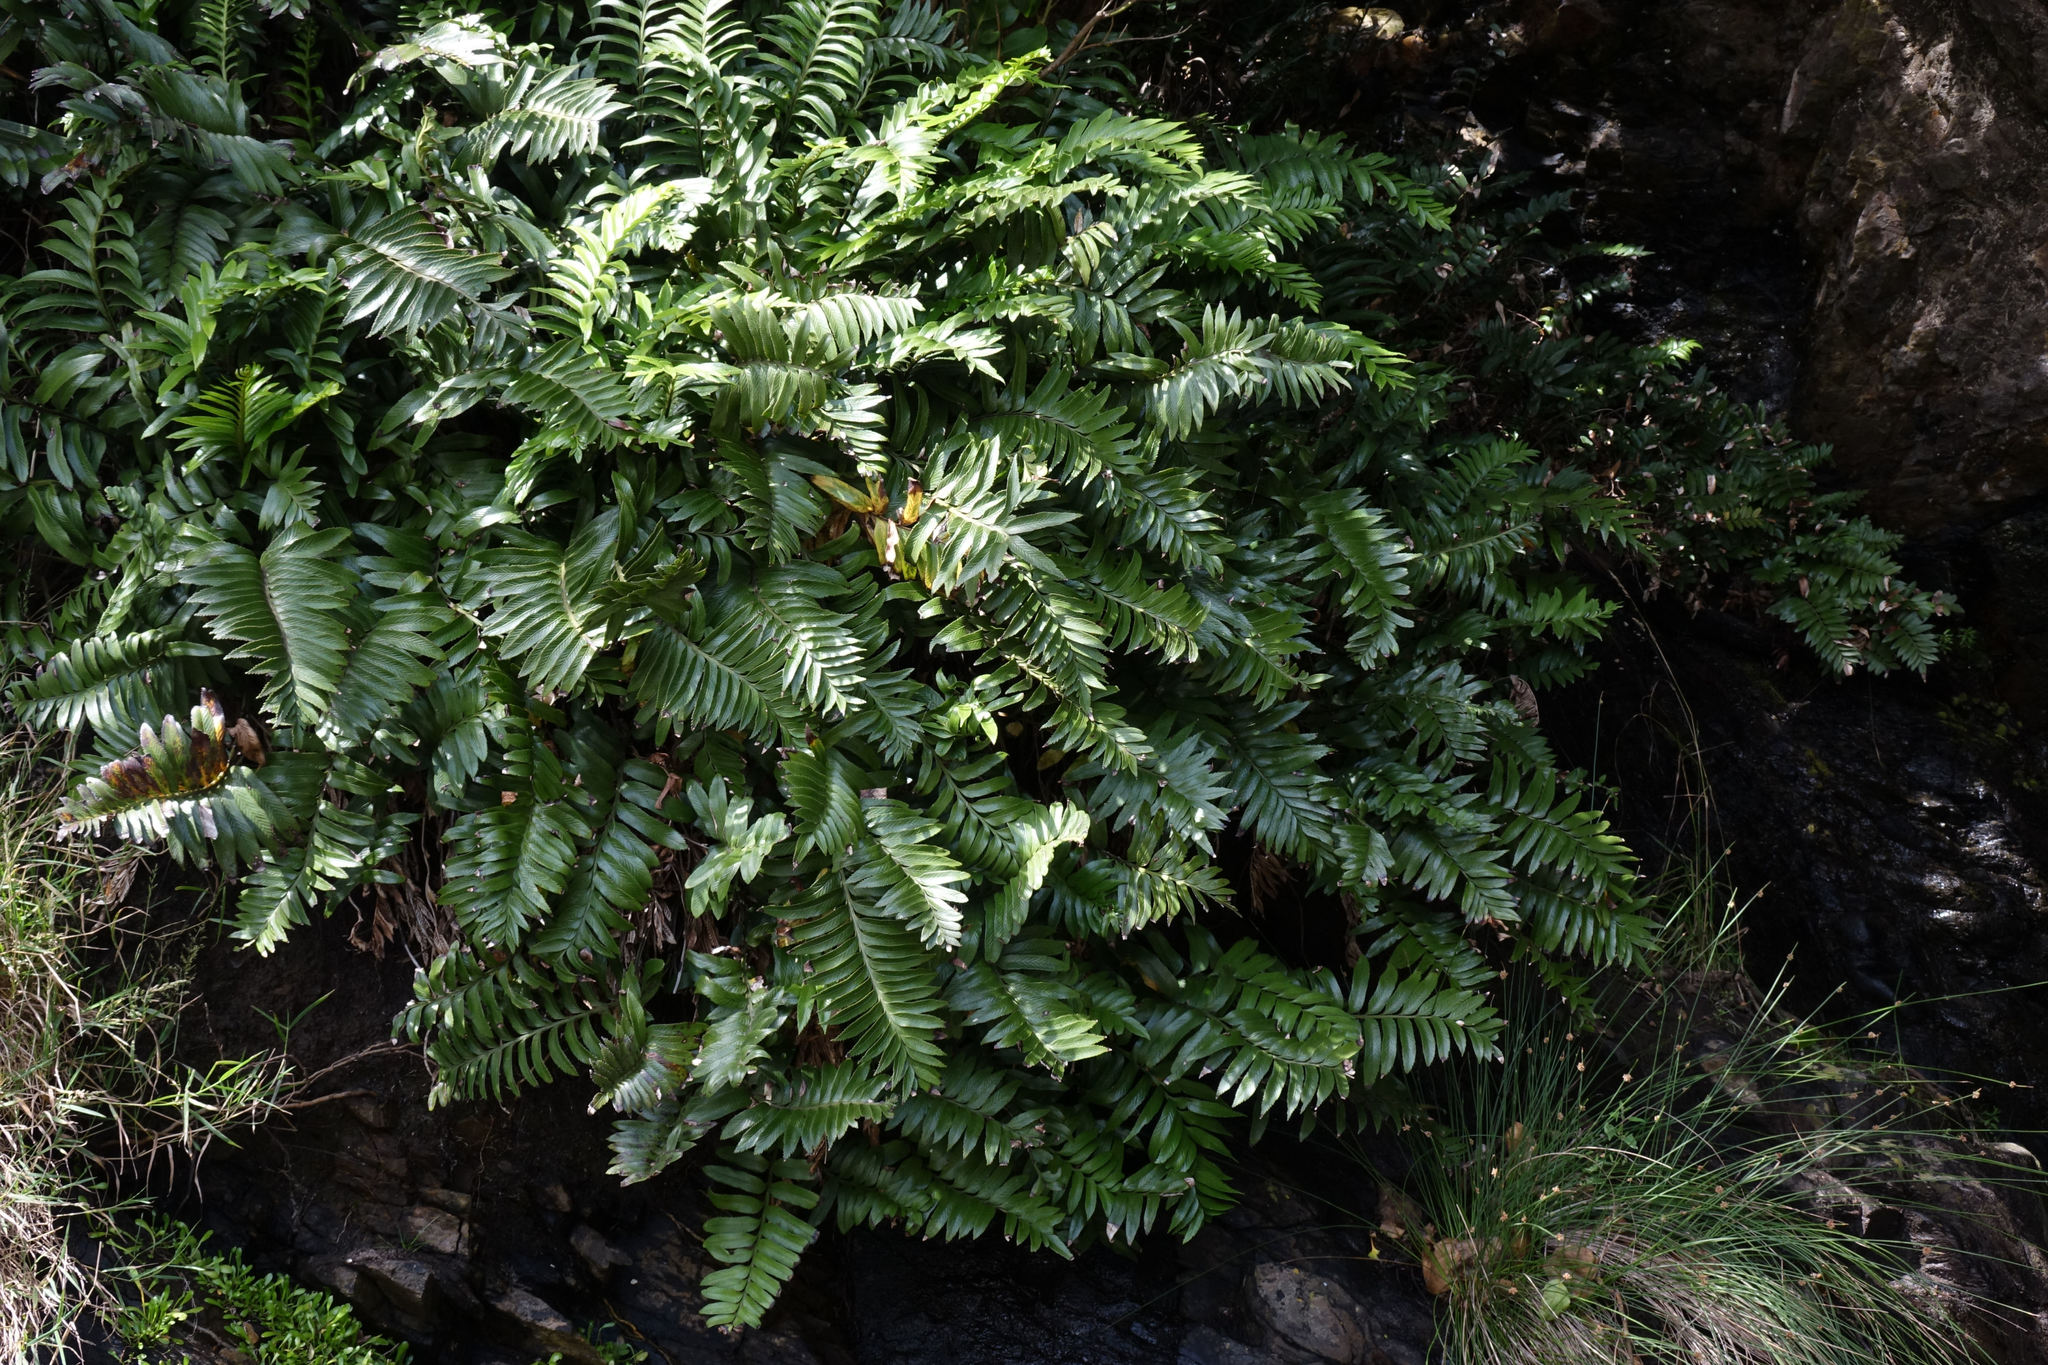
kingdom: Plantae
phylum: Tracheophyta
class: Polypodiopsida
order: Polypodiales
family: Aspleniaceae
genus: Asplenium
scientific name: Asplenium obtusatum
